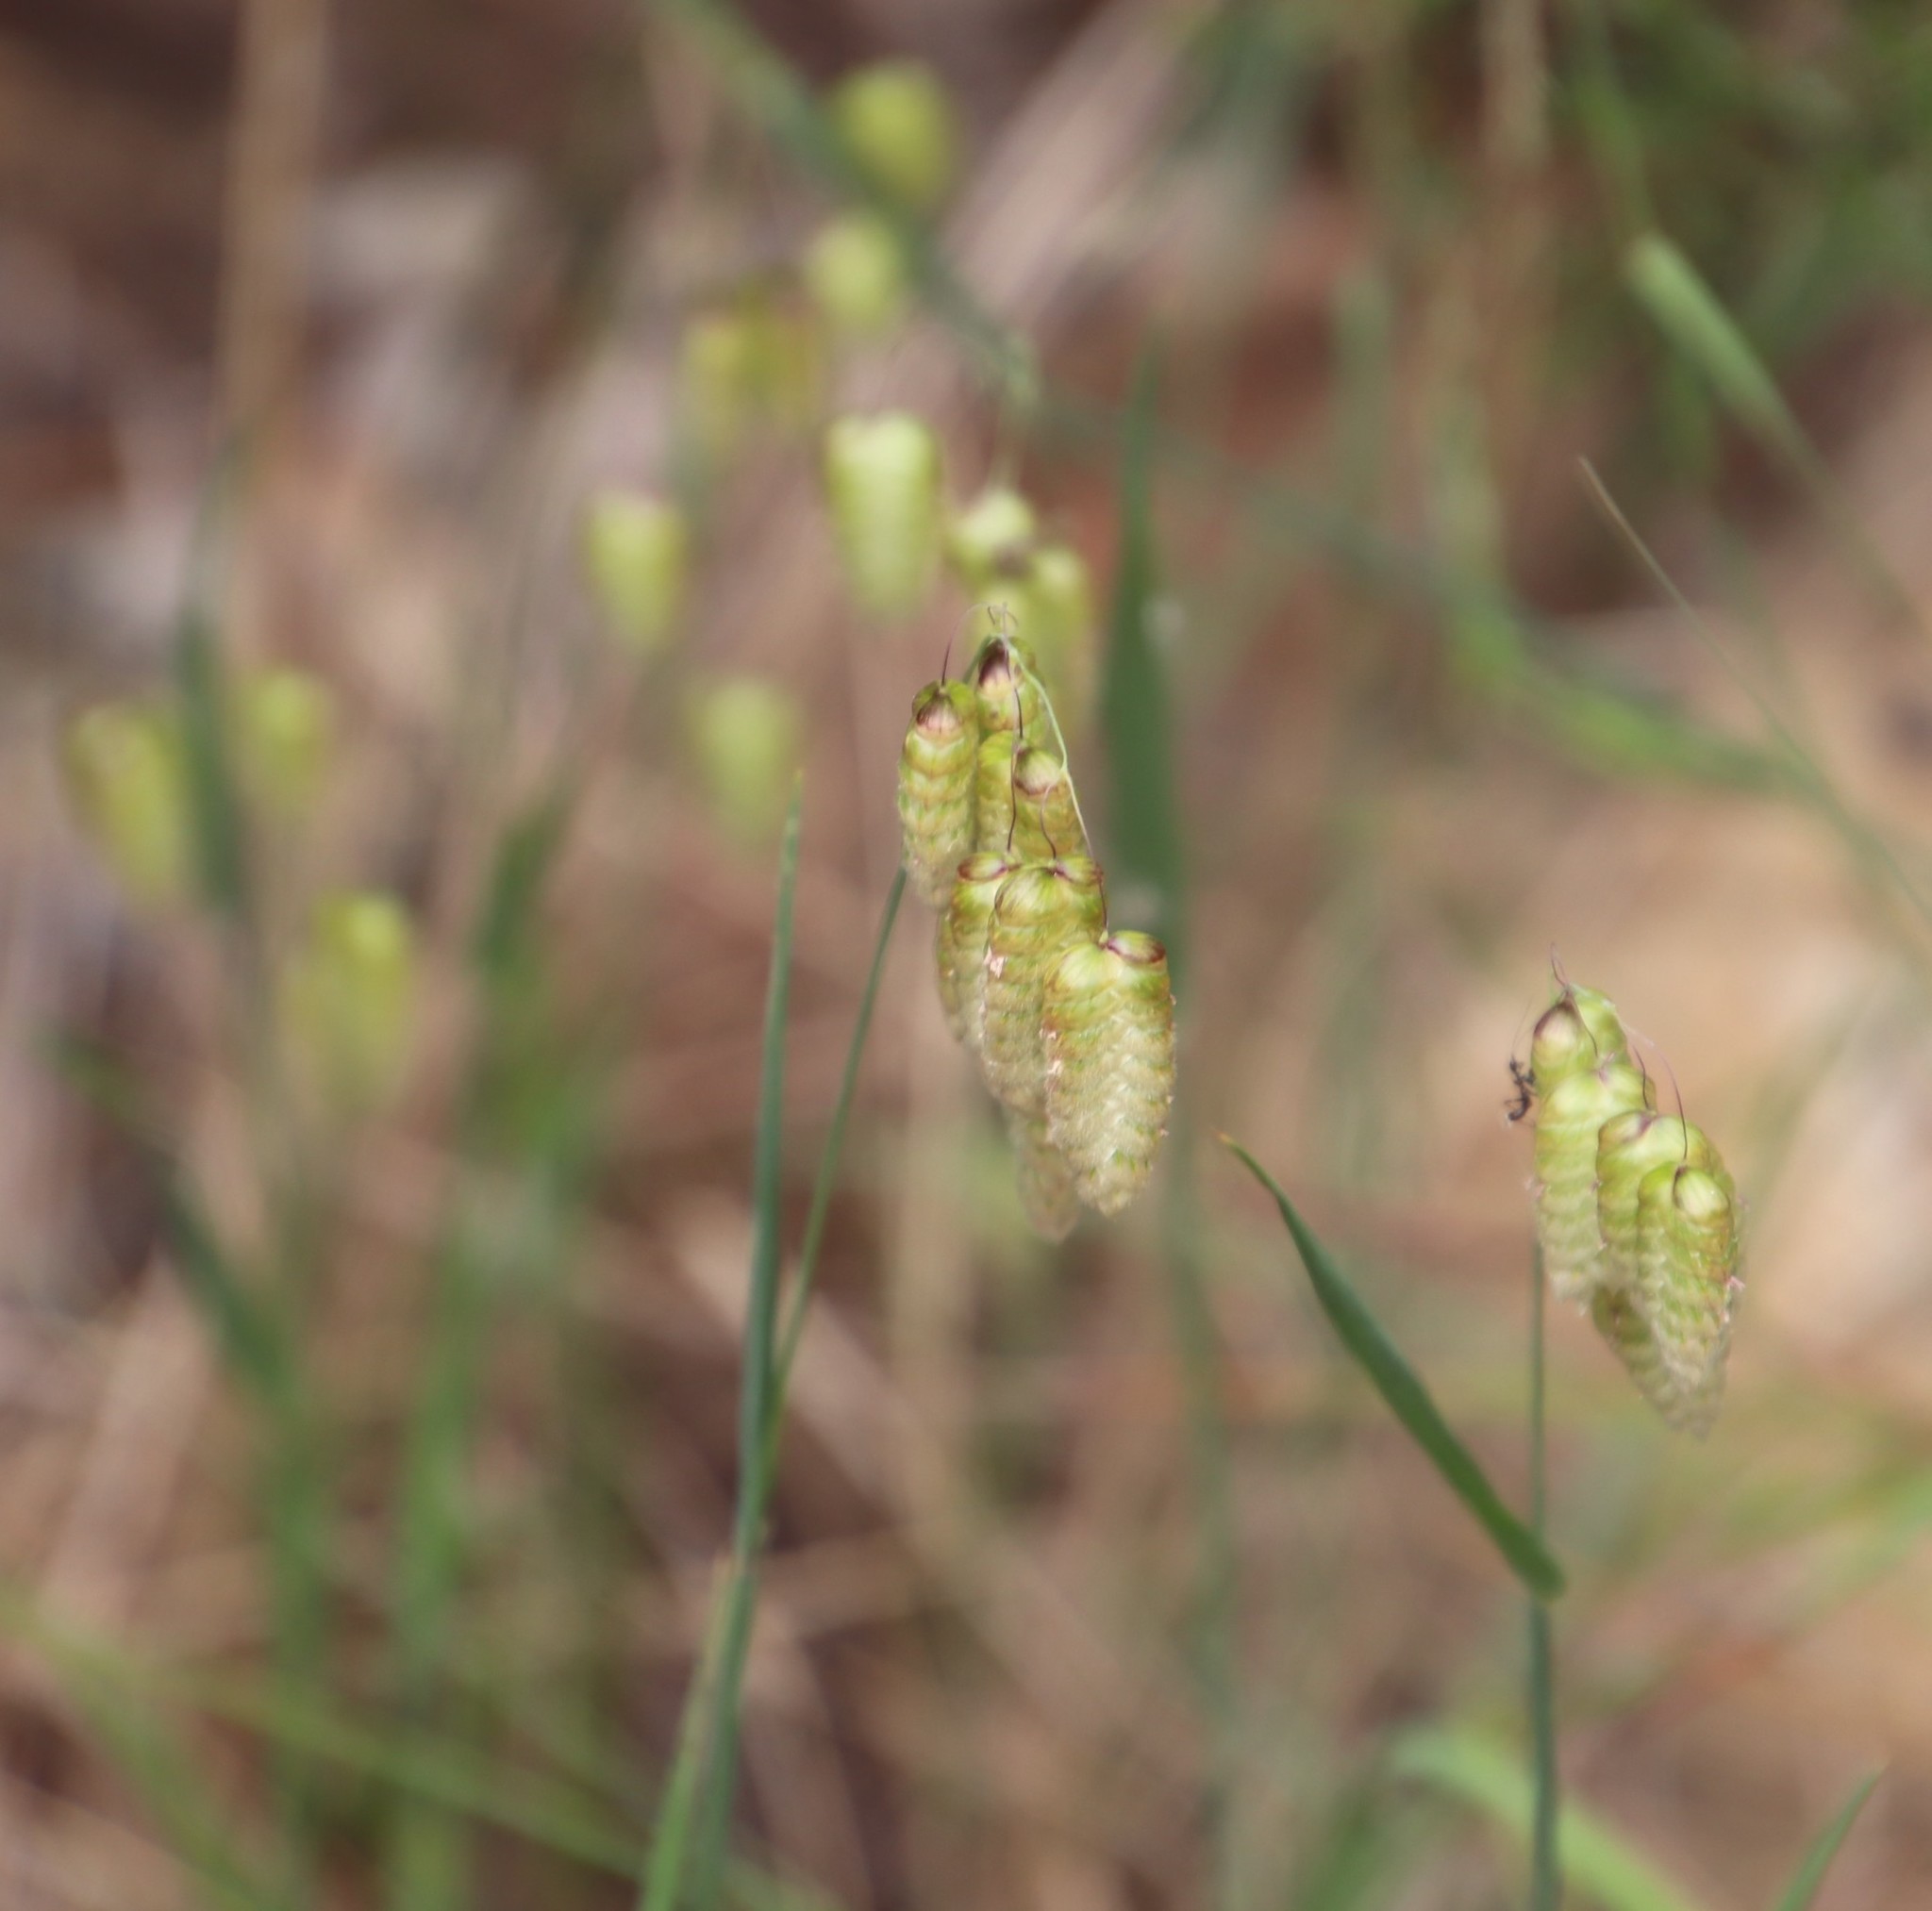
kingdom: Plantae
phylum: Tracheophyta
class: Liliopsida
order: Poales
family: Poaceae
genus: Briza
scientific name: Briza maxima
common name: Big quakinggrass
